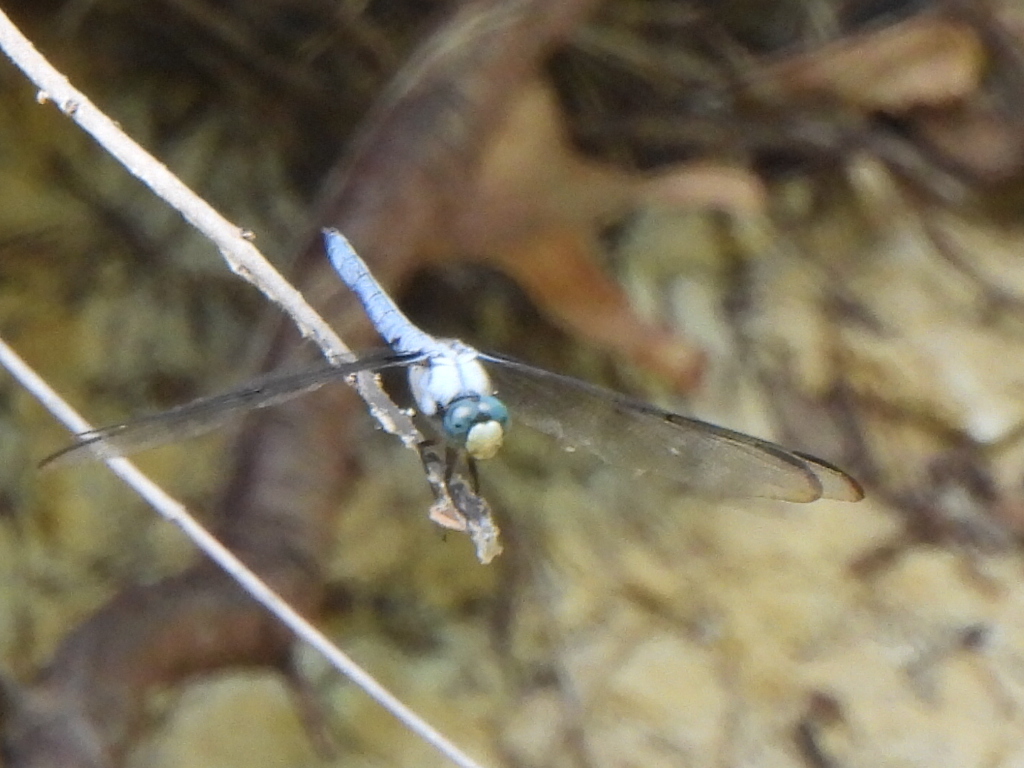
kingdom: Animalia
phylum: Arthropoda
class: Insecta
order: Odonata
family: Libellulidae
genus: Libellula
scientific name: Libellula vibrans
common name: Great blue skimmer
